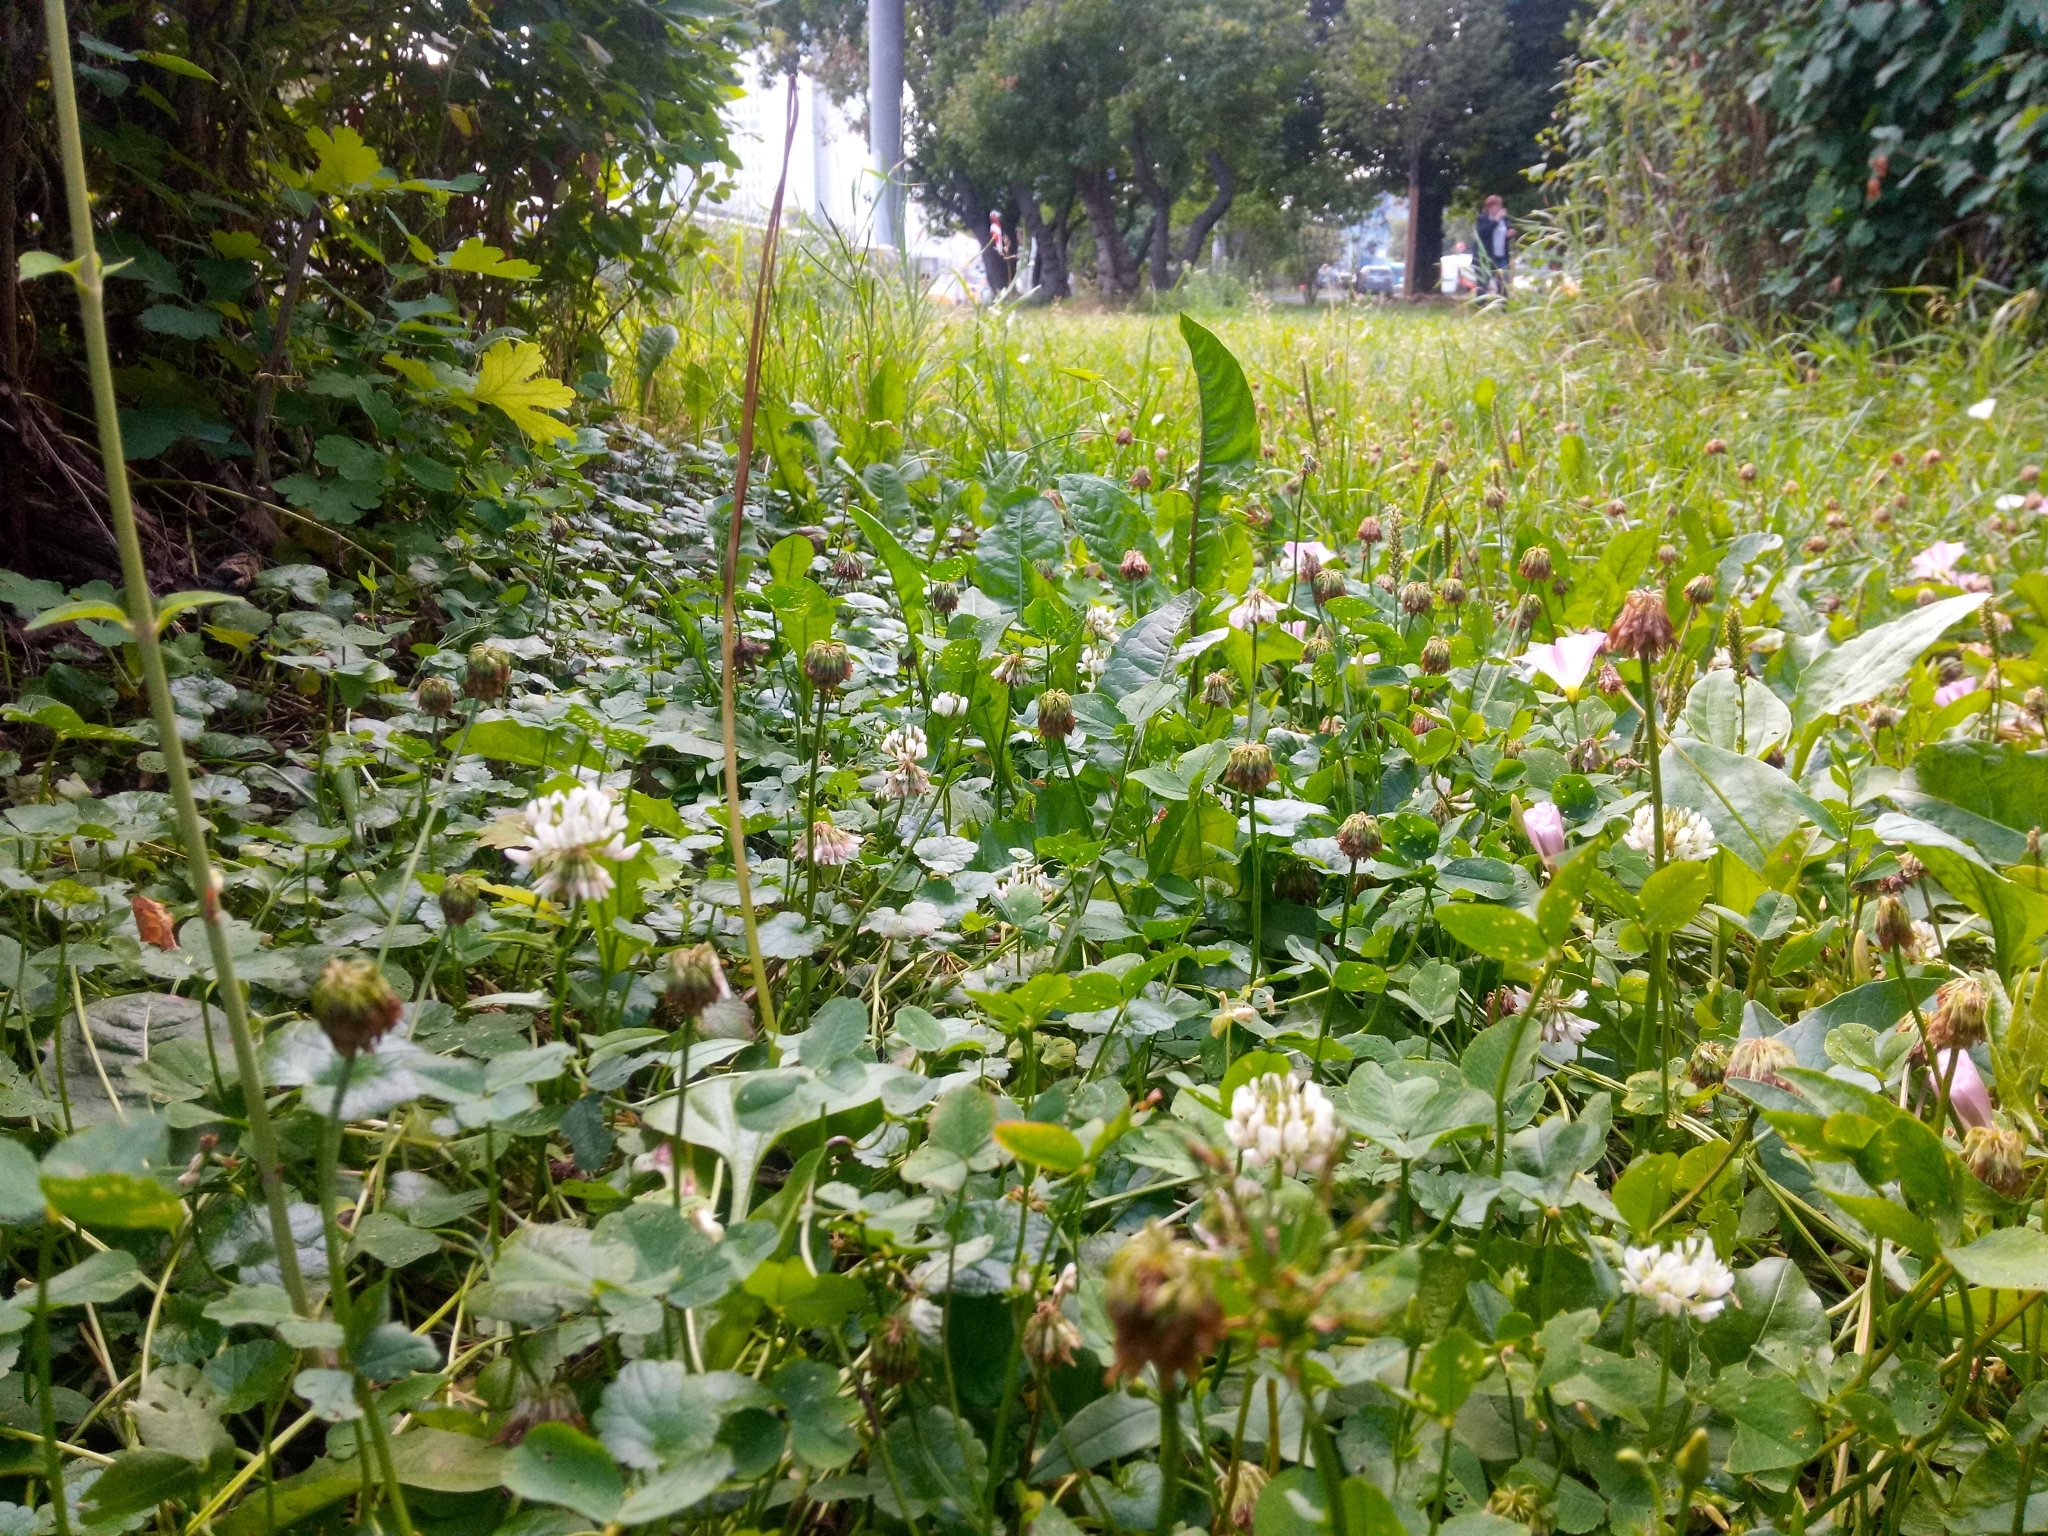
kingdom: Plantae
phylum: Tracheophyta
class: Magnoliopsida
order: Fabales
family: Fabaceae
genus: Trifolium
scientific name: Trifolium repens
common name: White clover
